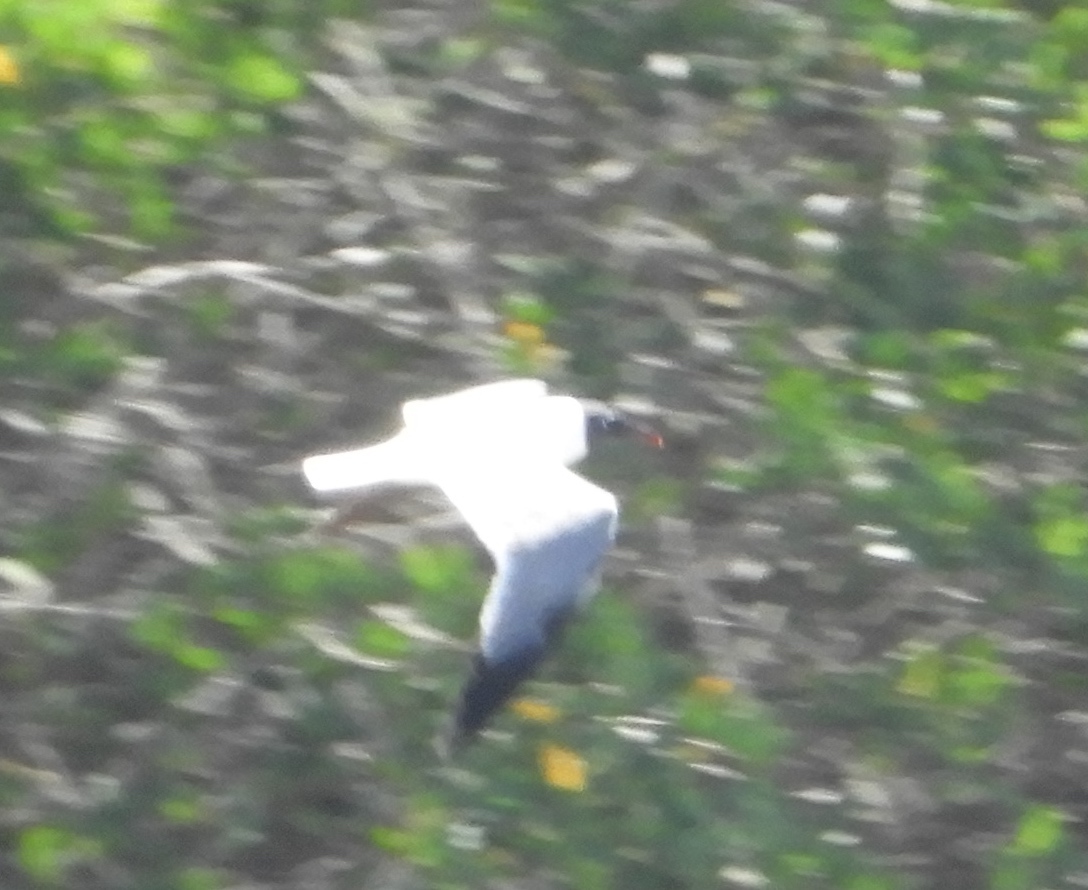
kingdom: Animalia
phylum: Chordata
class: Aves
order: Charadriiformes
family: Laridae
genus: Leucophaeus
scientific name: Leucophaeus atricilla
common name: Laughing gull
